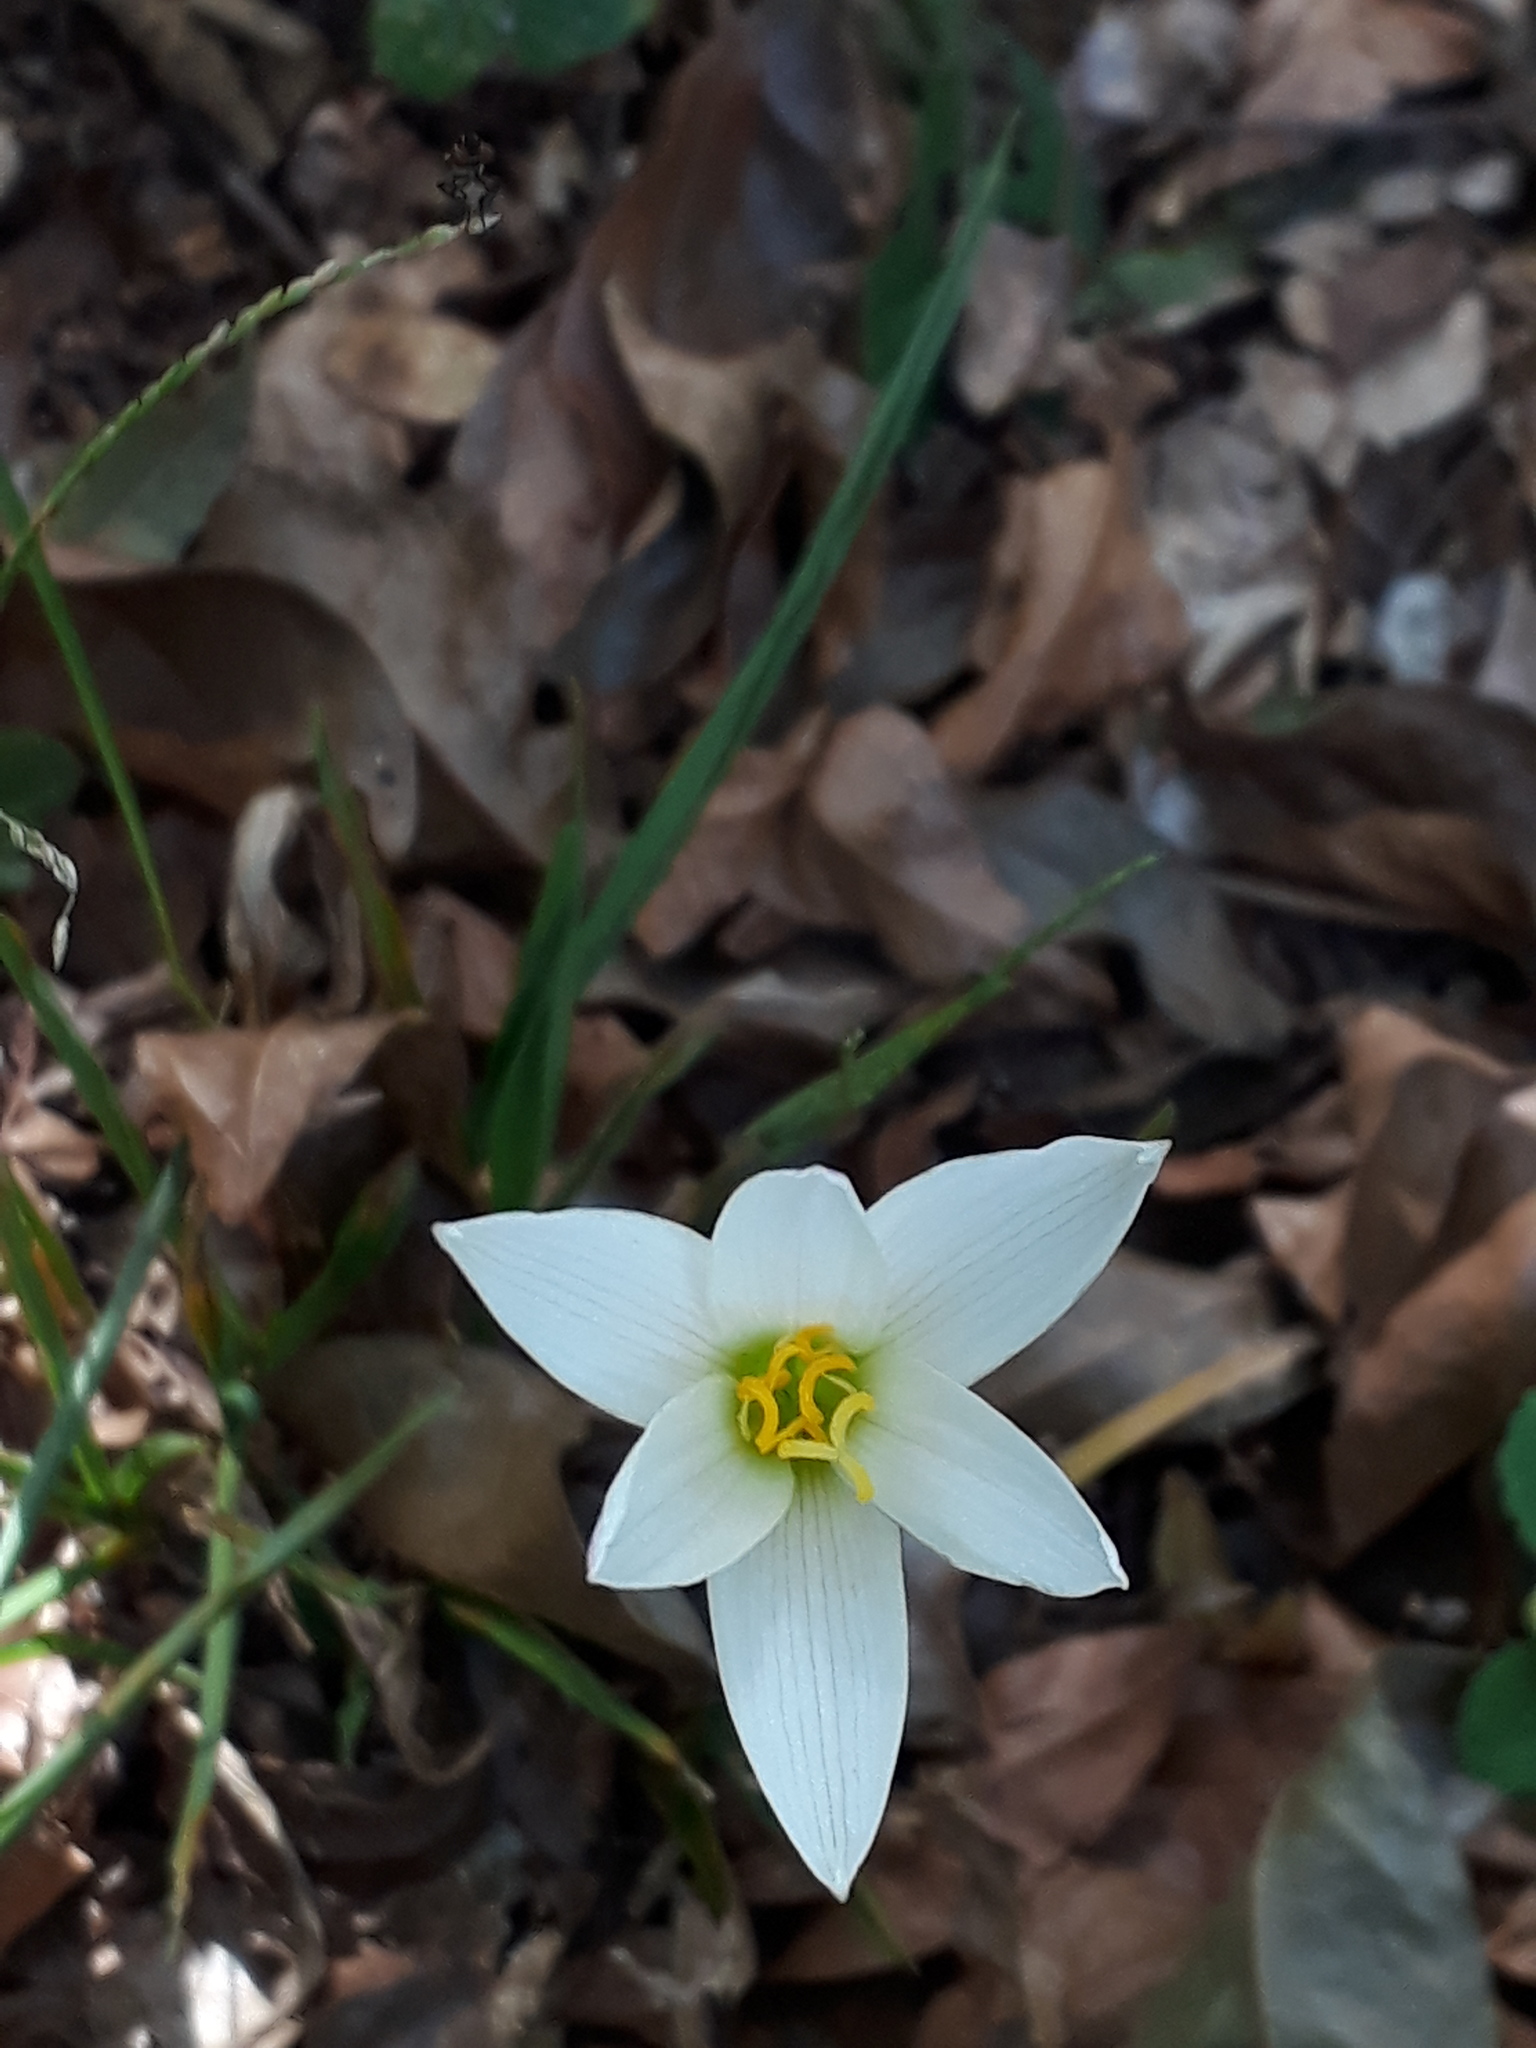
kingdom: Plantae
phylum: Tracheophyta
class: Liliopsida
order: Asparagales
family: Amaryllidaceae
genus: Zephyranthes
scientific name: Zephyranthes mesochloa
